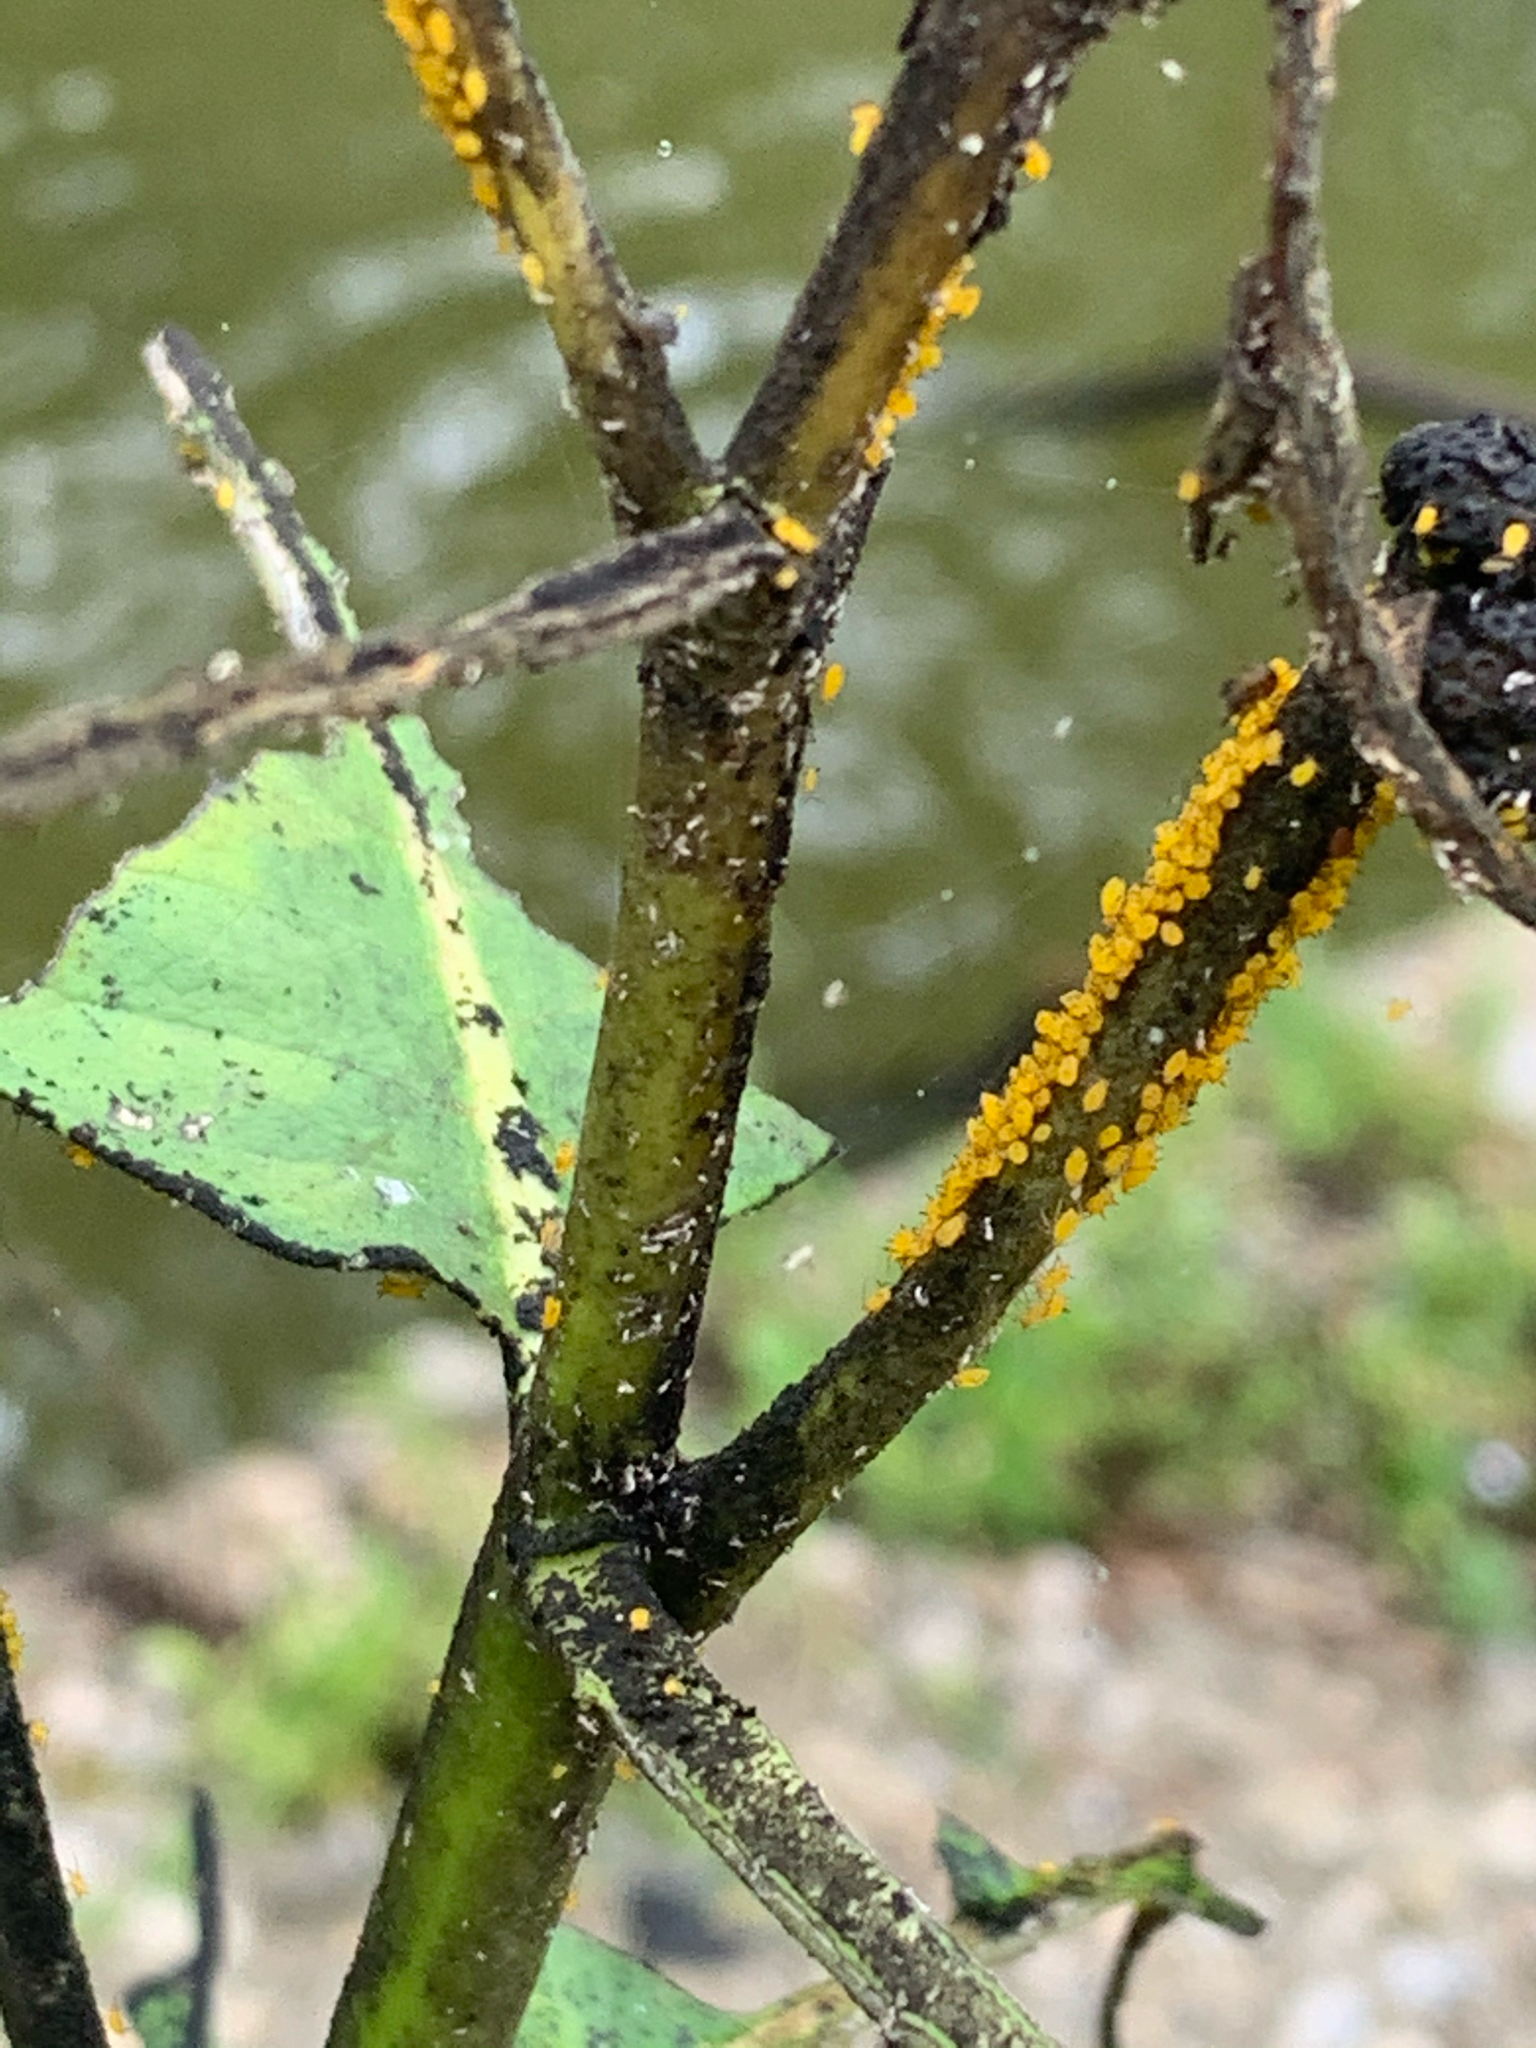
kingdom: Animalia
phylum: Arthropoda
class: Insecta
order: Hemiptera
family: Aphididae
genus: Aphis
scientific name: Aphis nerii
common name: Oleander aphid
